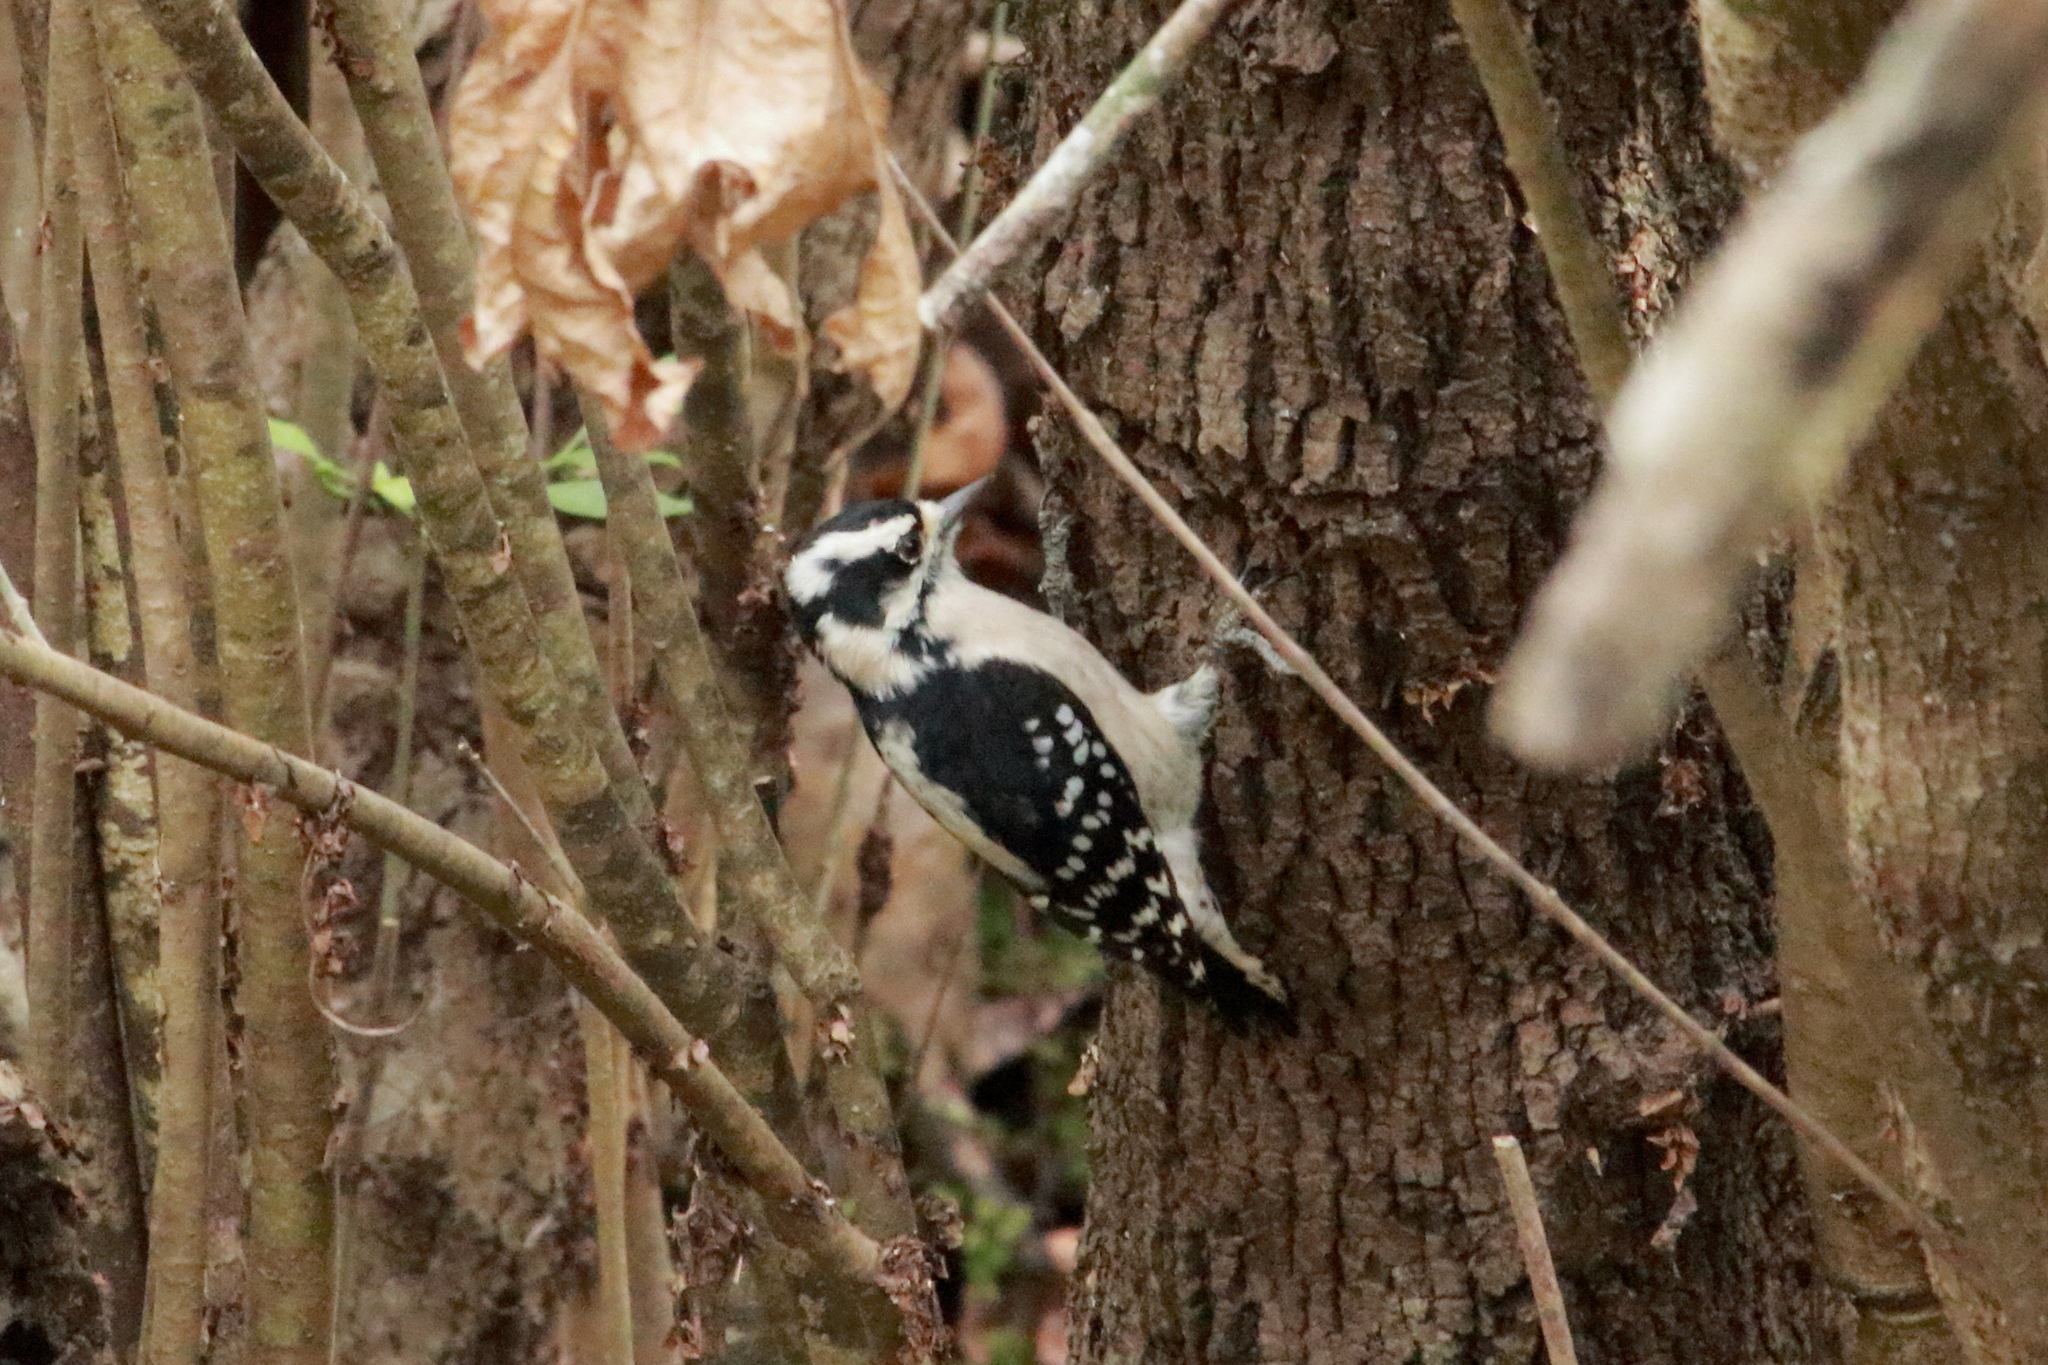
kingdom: Animalia
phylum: Chordata
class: Aves
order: Piciformes
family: Picidae
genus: Dryobates
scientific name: Dryobates pubescens
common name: Downy woodpecker
